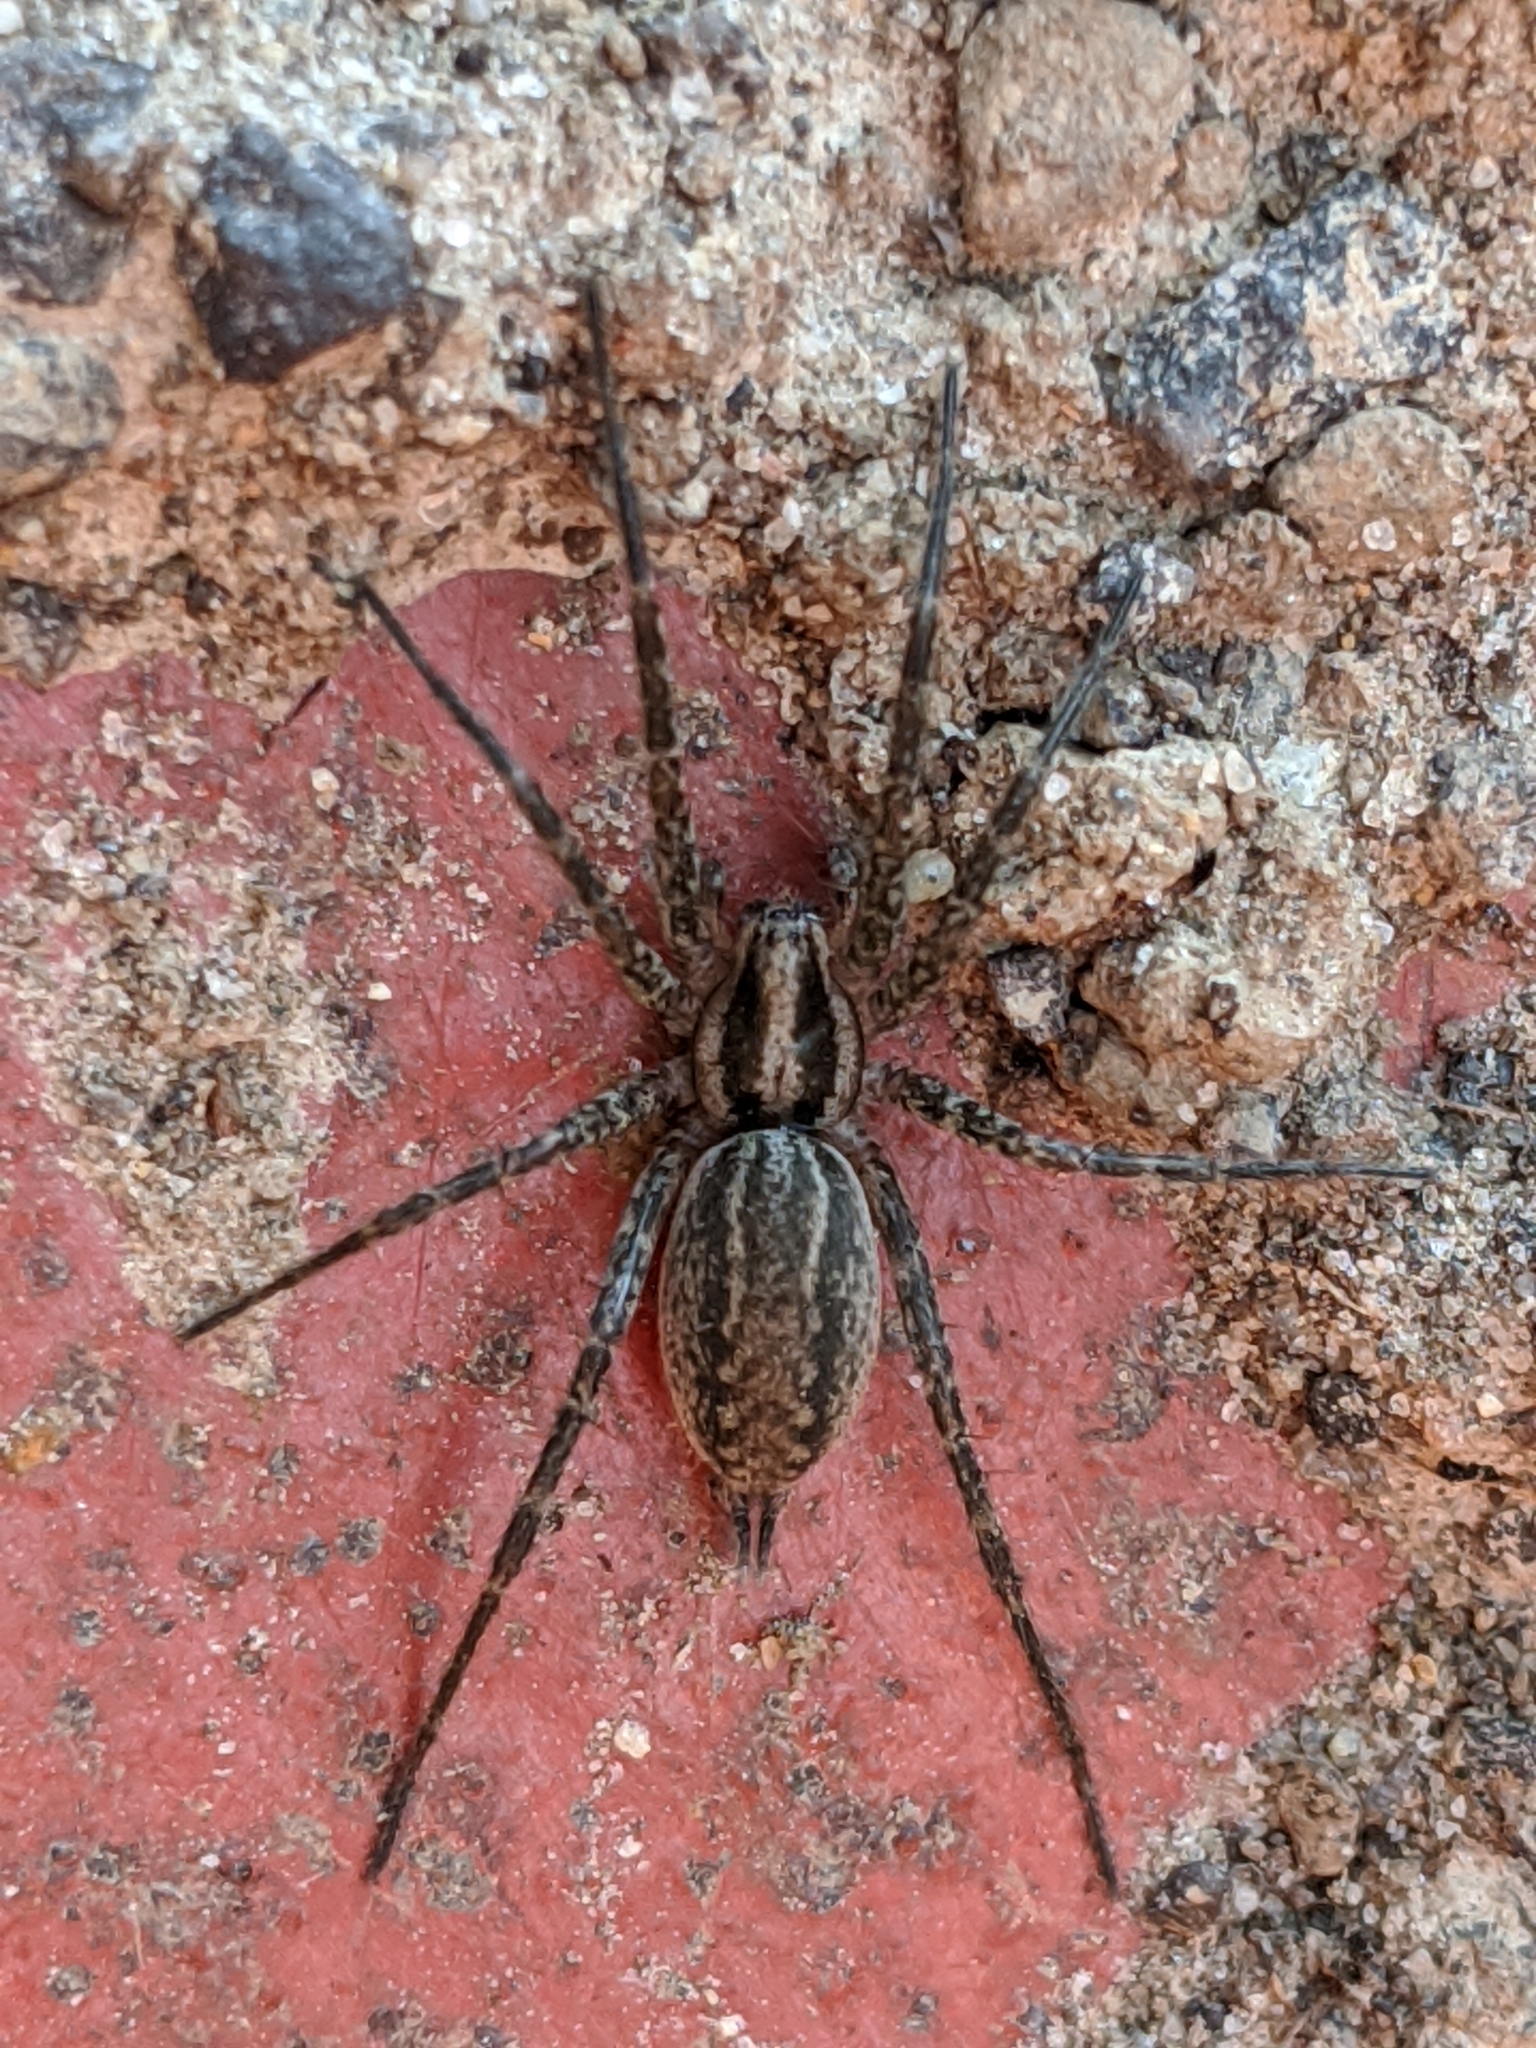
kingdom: Animalia
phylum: Arthropoda
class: Arachnida
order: Araneae
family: Agelenidae
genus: Agelenopsis
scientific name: Agelenopsis
